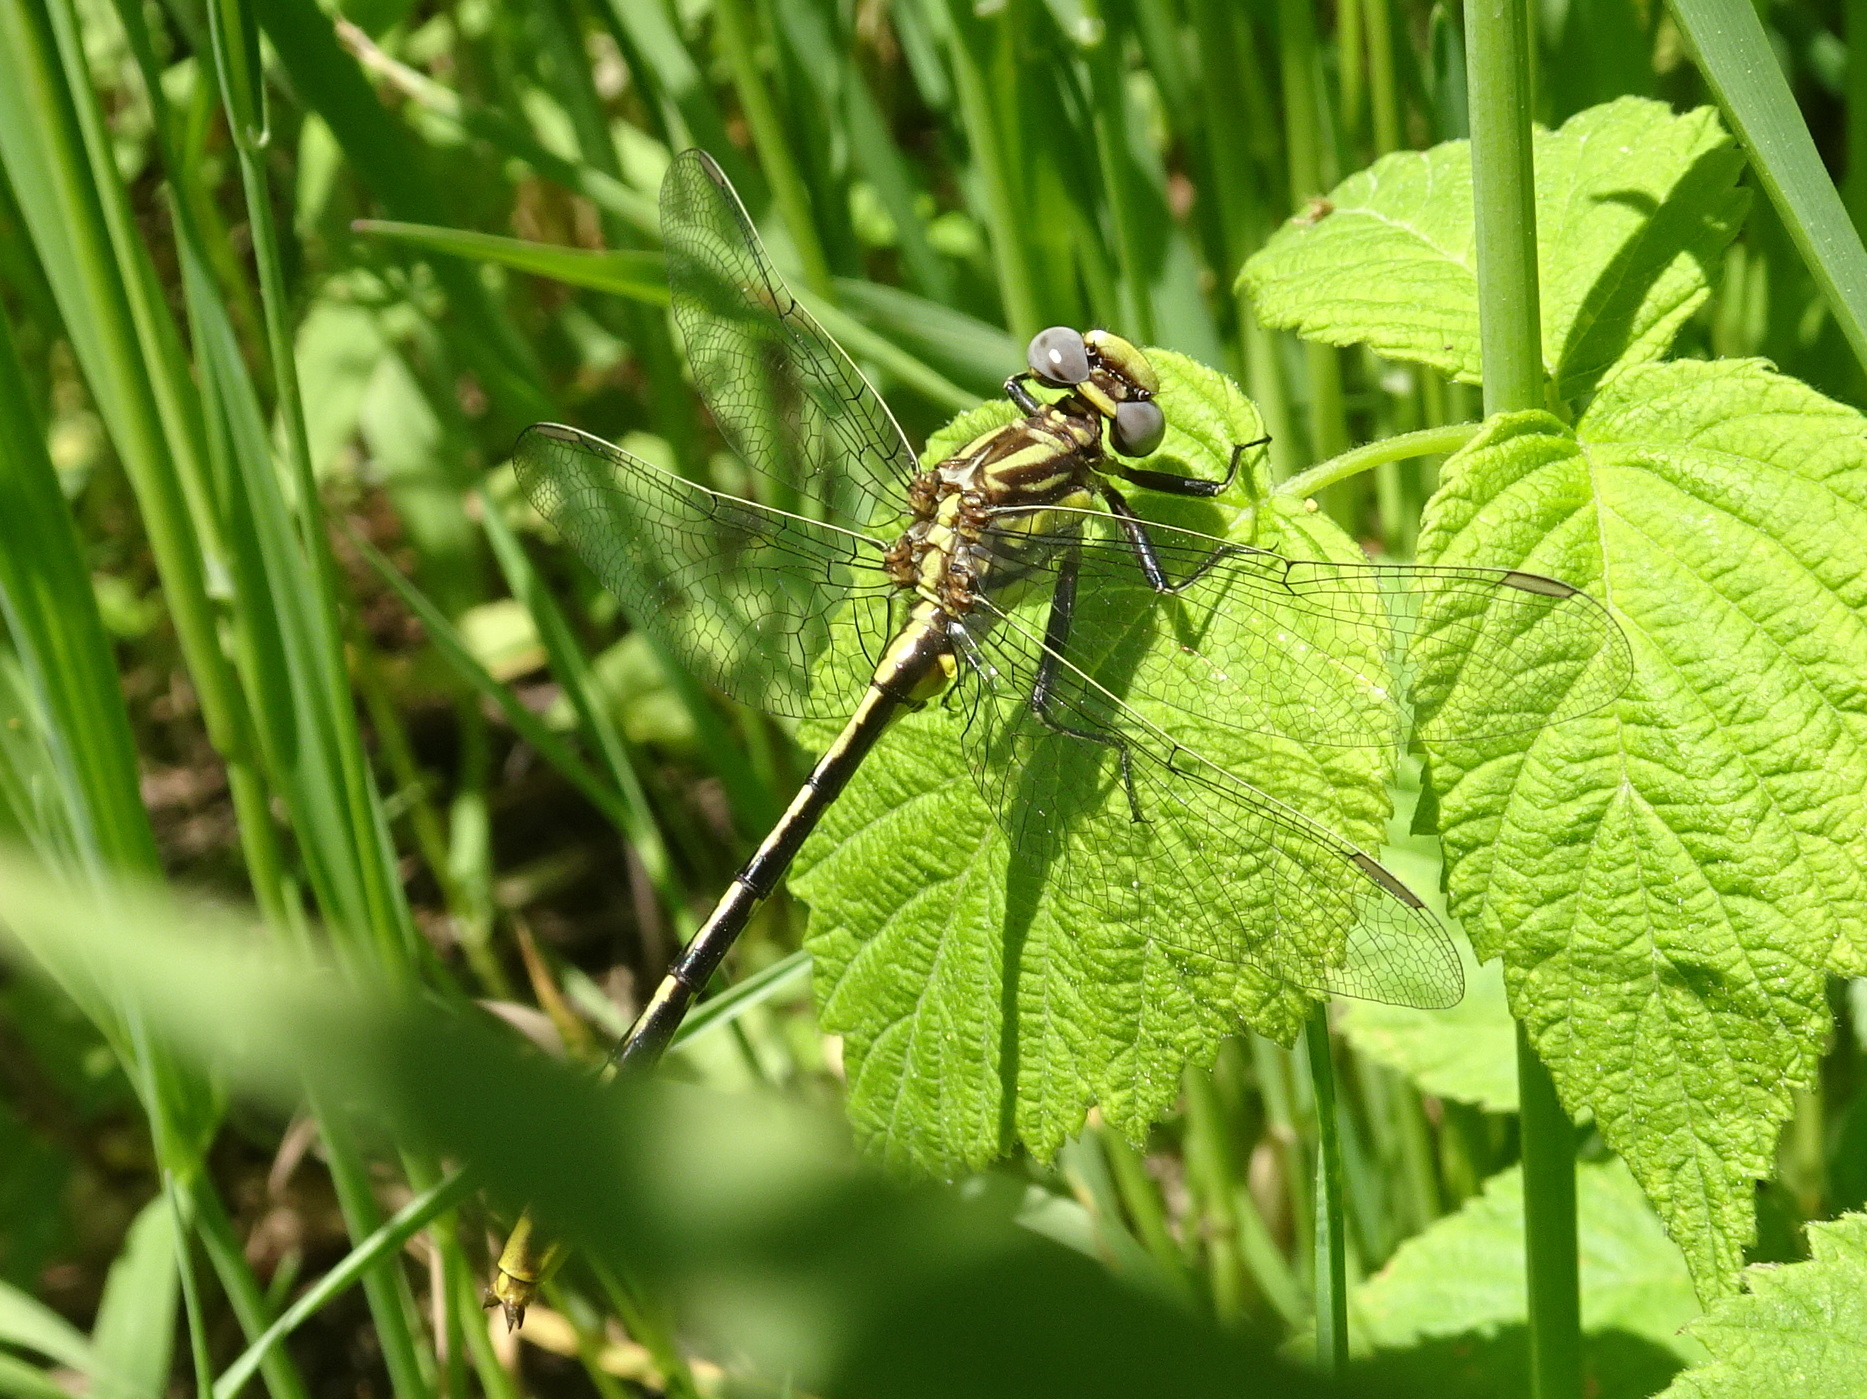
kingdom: Animalia
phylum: Arthropoda
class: Insecta
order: Odonata
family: Gomphidae
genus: Phanogomphus
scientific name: Phanogomphus exilis
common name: Lancet clubtail
